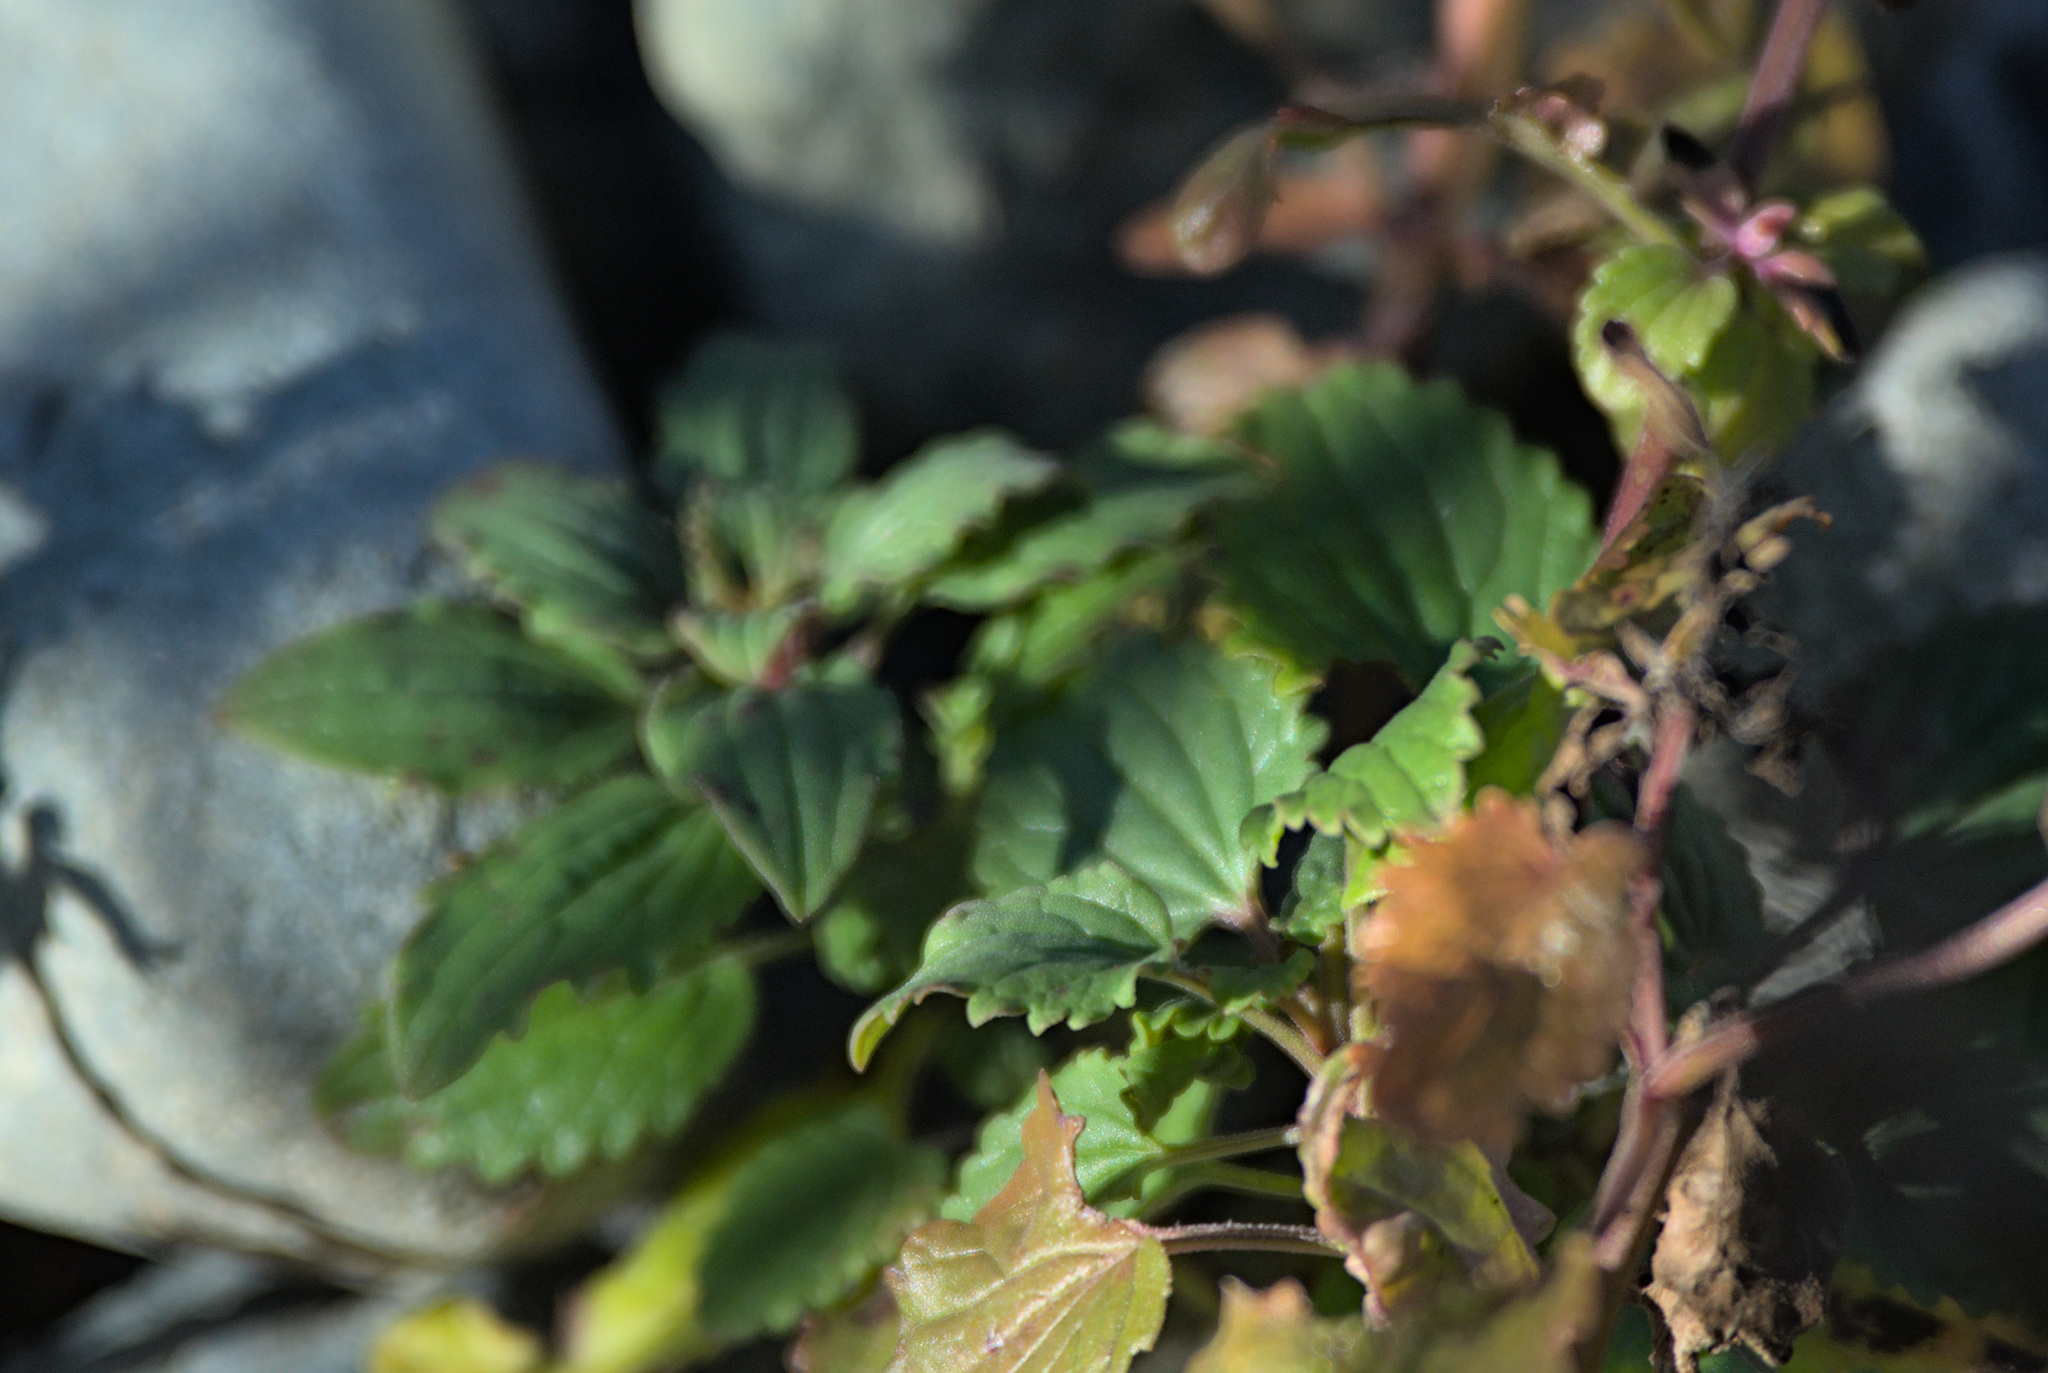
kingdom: Plantae
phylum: Tracheophyta
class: Magnoliopsida
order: Lamiales
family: Lamiaceae
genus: Dracocephalum
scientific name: Dracocephalum nutans
